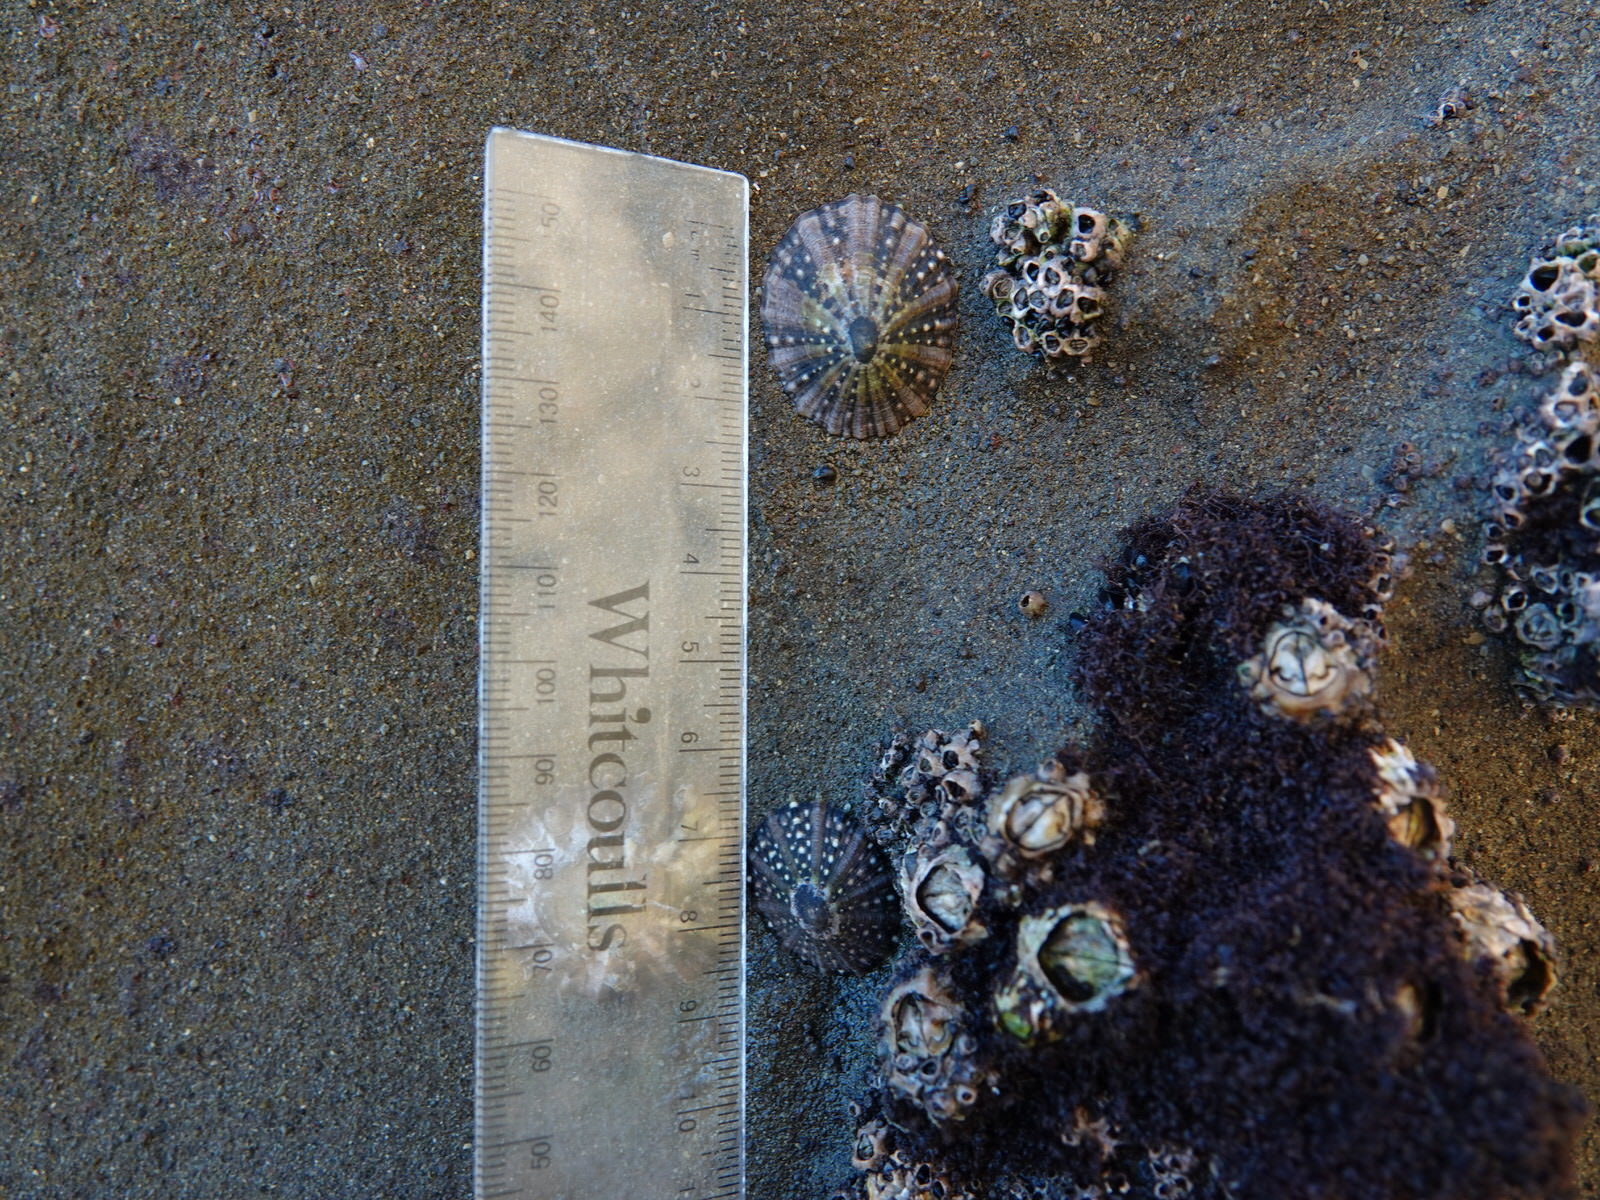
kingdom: Animalia
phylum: Mollusca
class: Gastropoda
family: Nacellidae
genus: Cellana
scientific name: Cellana ornata
